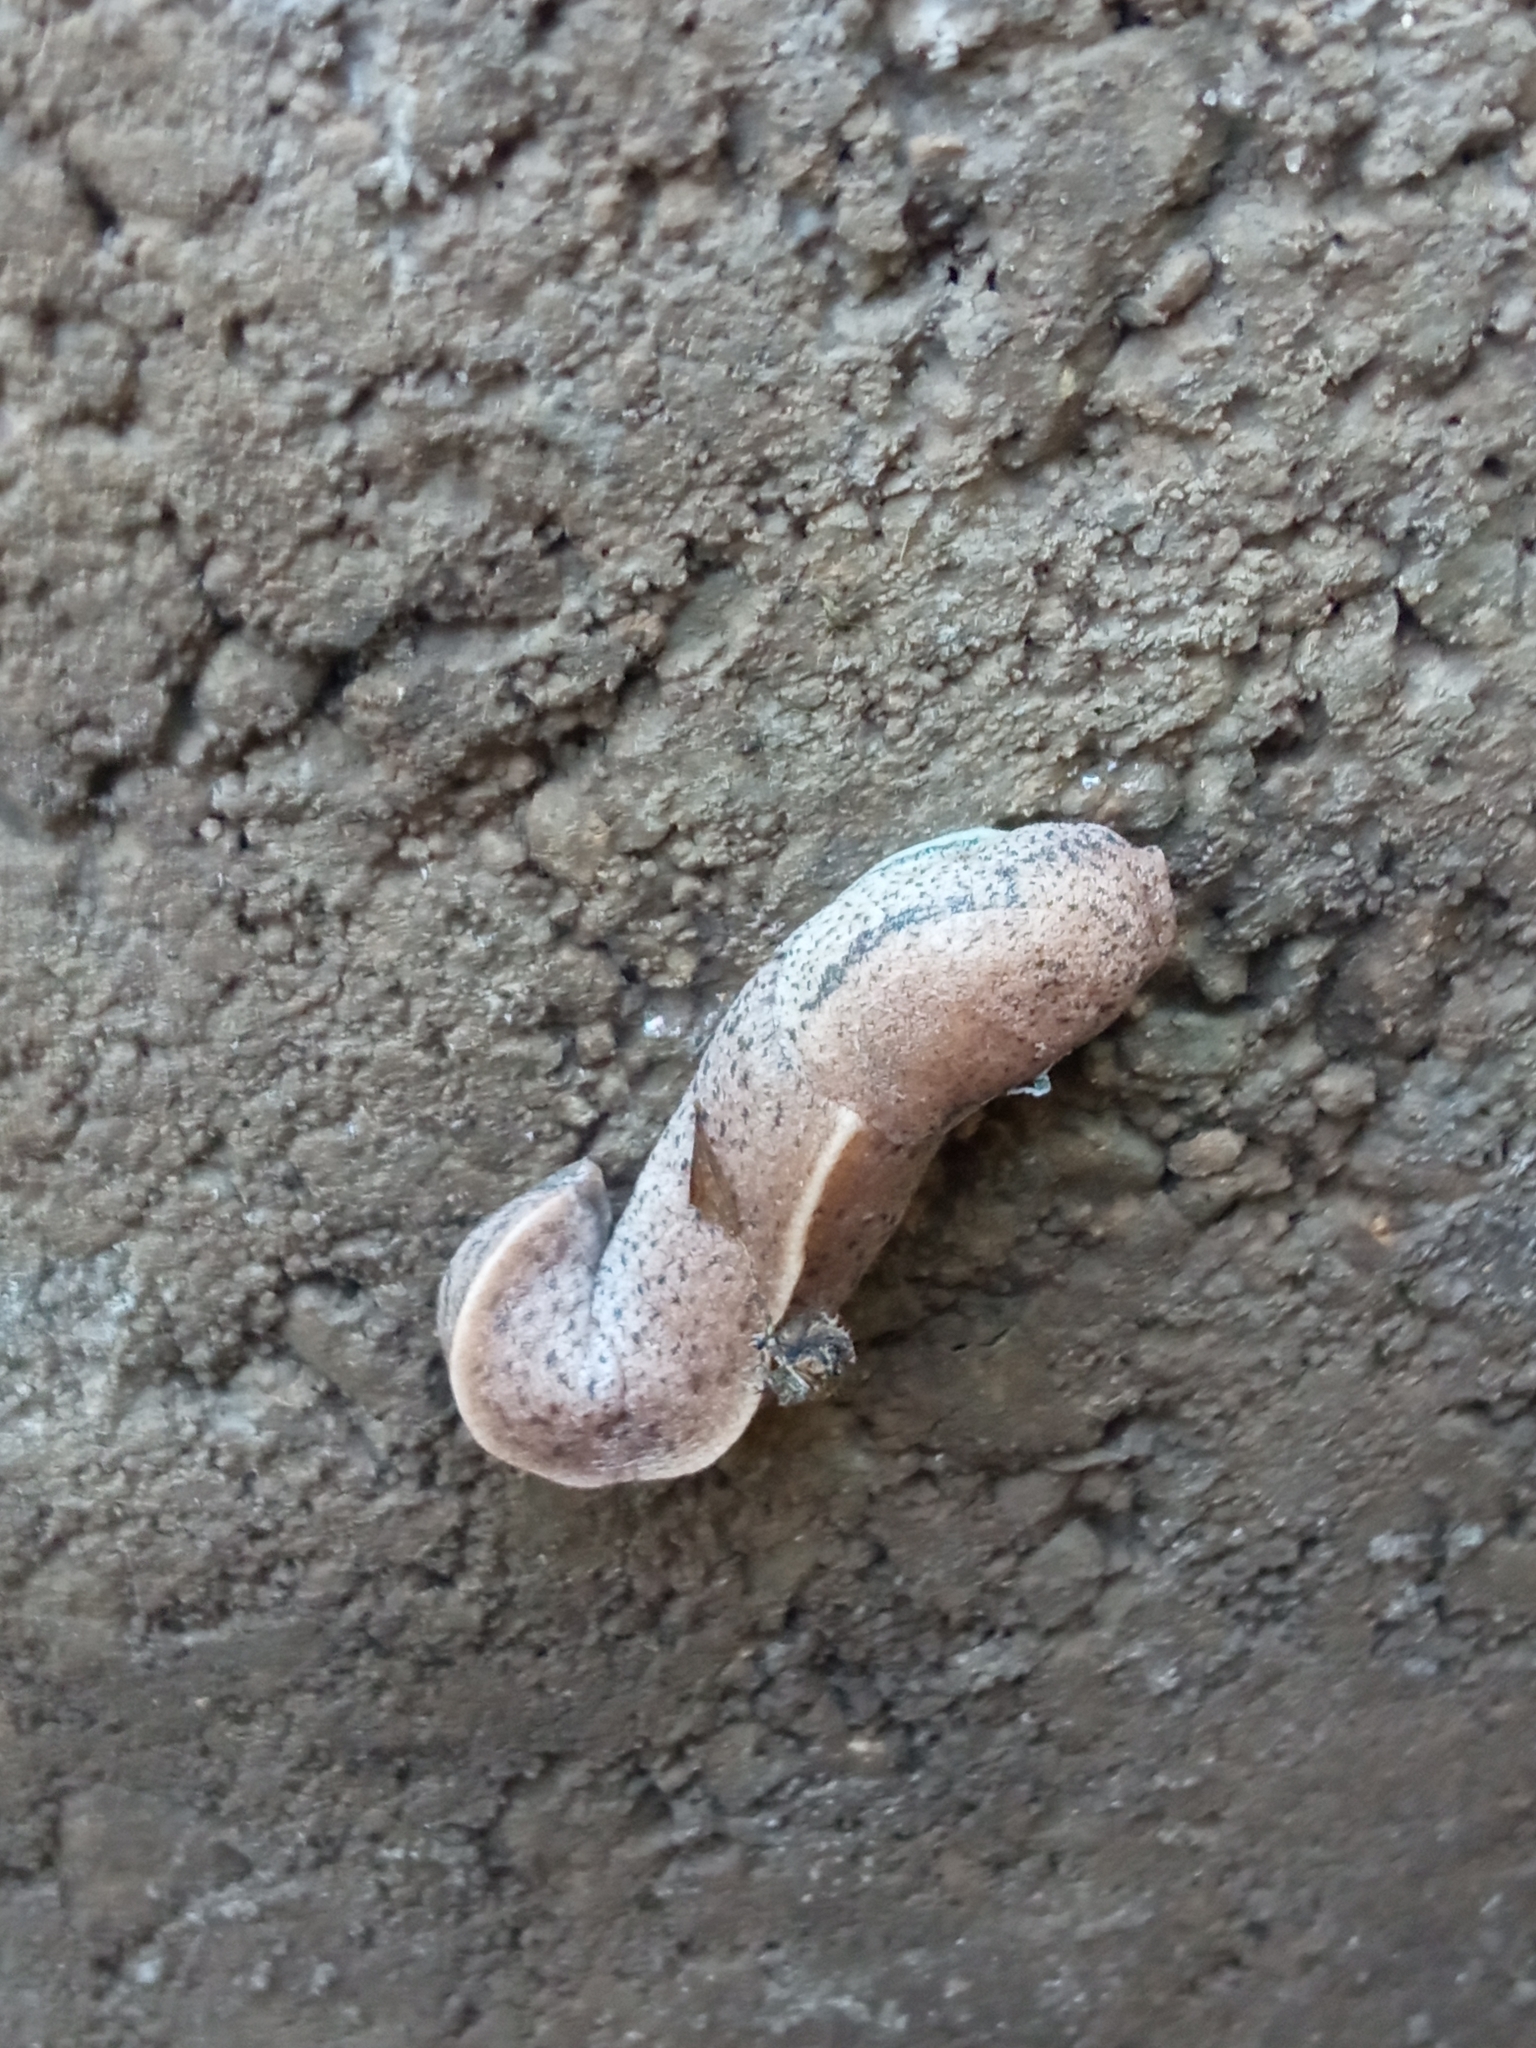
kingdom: Animalia
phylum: Mollusca
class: Gastropoda
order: Stylommatophora
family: Milacidae
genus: Tandonia
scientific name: Tandonia rustica
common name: Bulb-eating slug
